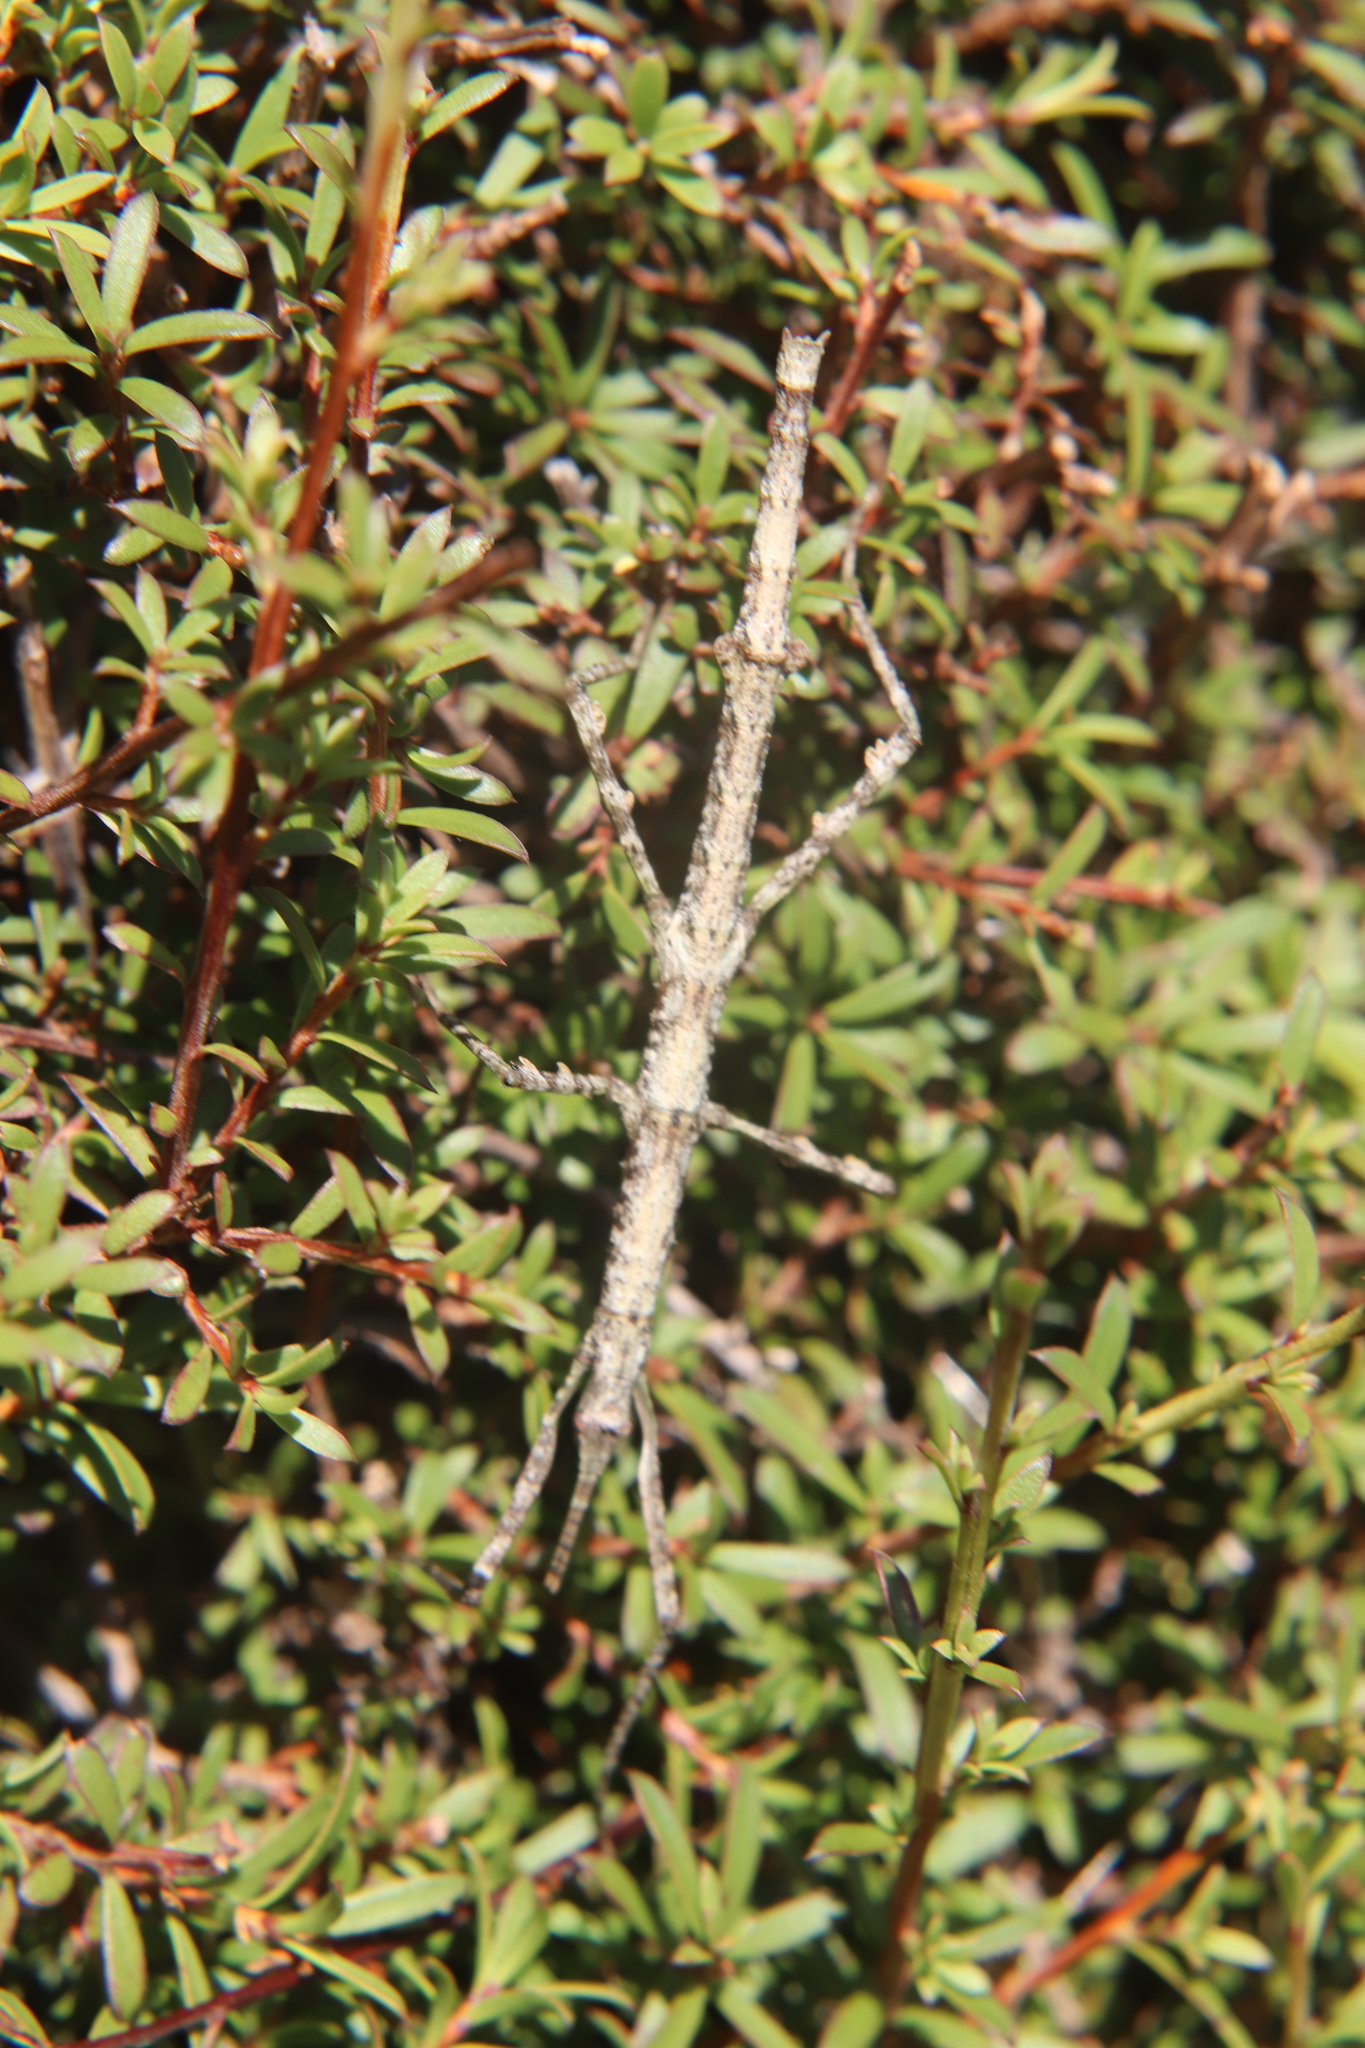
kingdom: Animalia
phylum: Arthropoda
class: Insecta
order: Phasmida
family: Phasmatidae
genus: Niveaphasma
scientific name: Niveaphasma annulatum
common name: Hutton's stick insect
